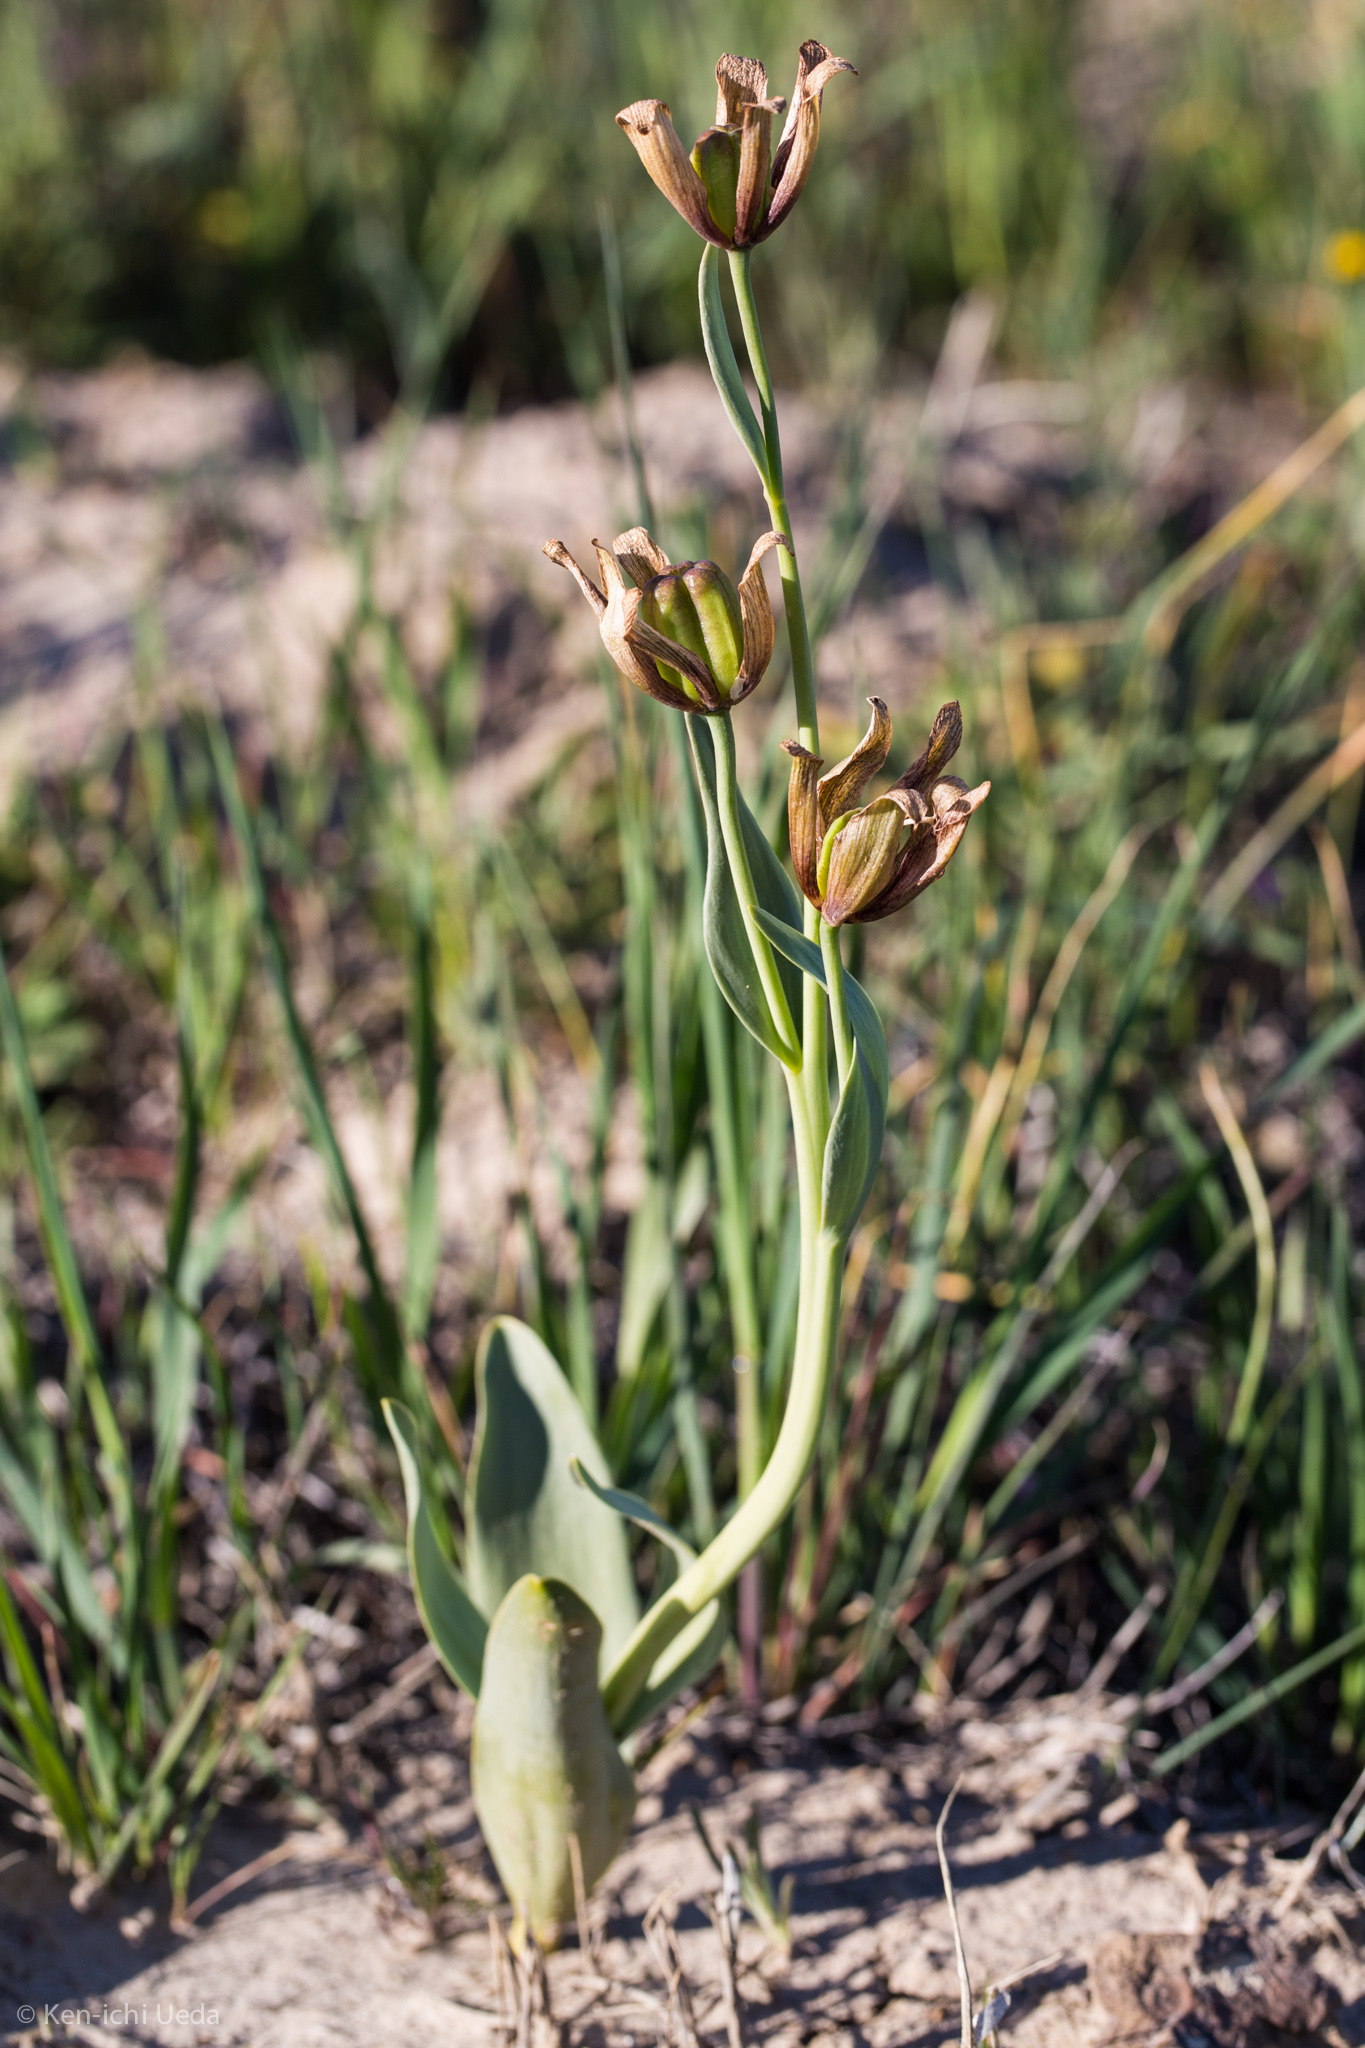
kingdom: Plantae
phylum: Tracheophyta
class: Liliopsida
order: Liliales
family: Liliaceae
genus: Fritillaria
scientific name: Fritillaria agrestis
